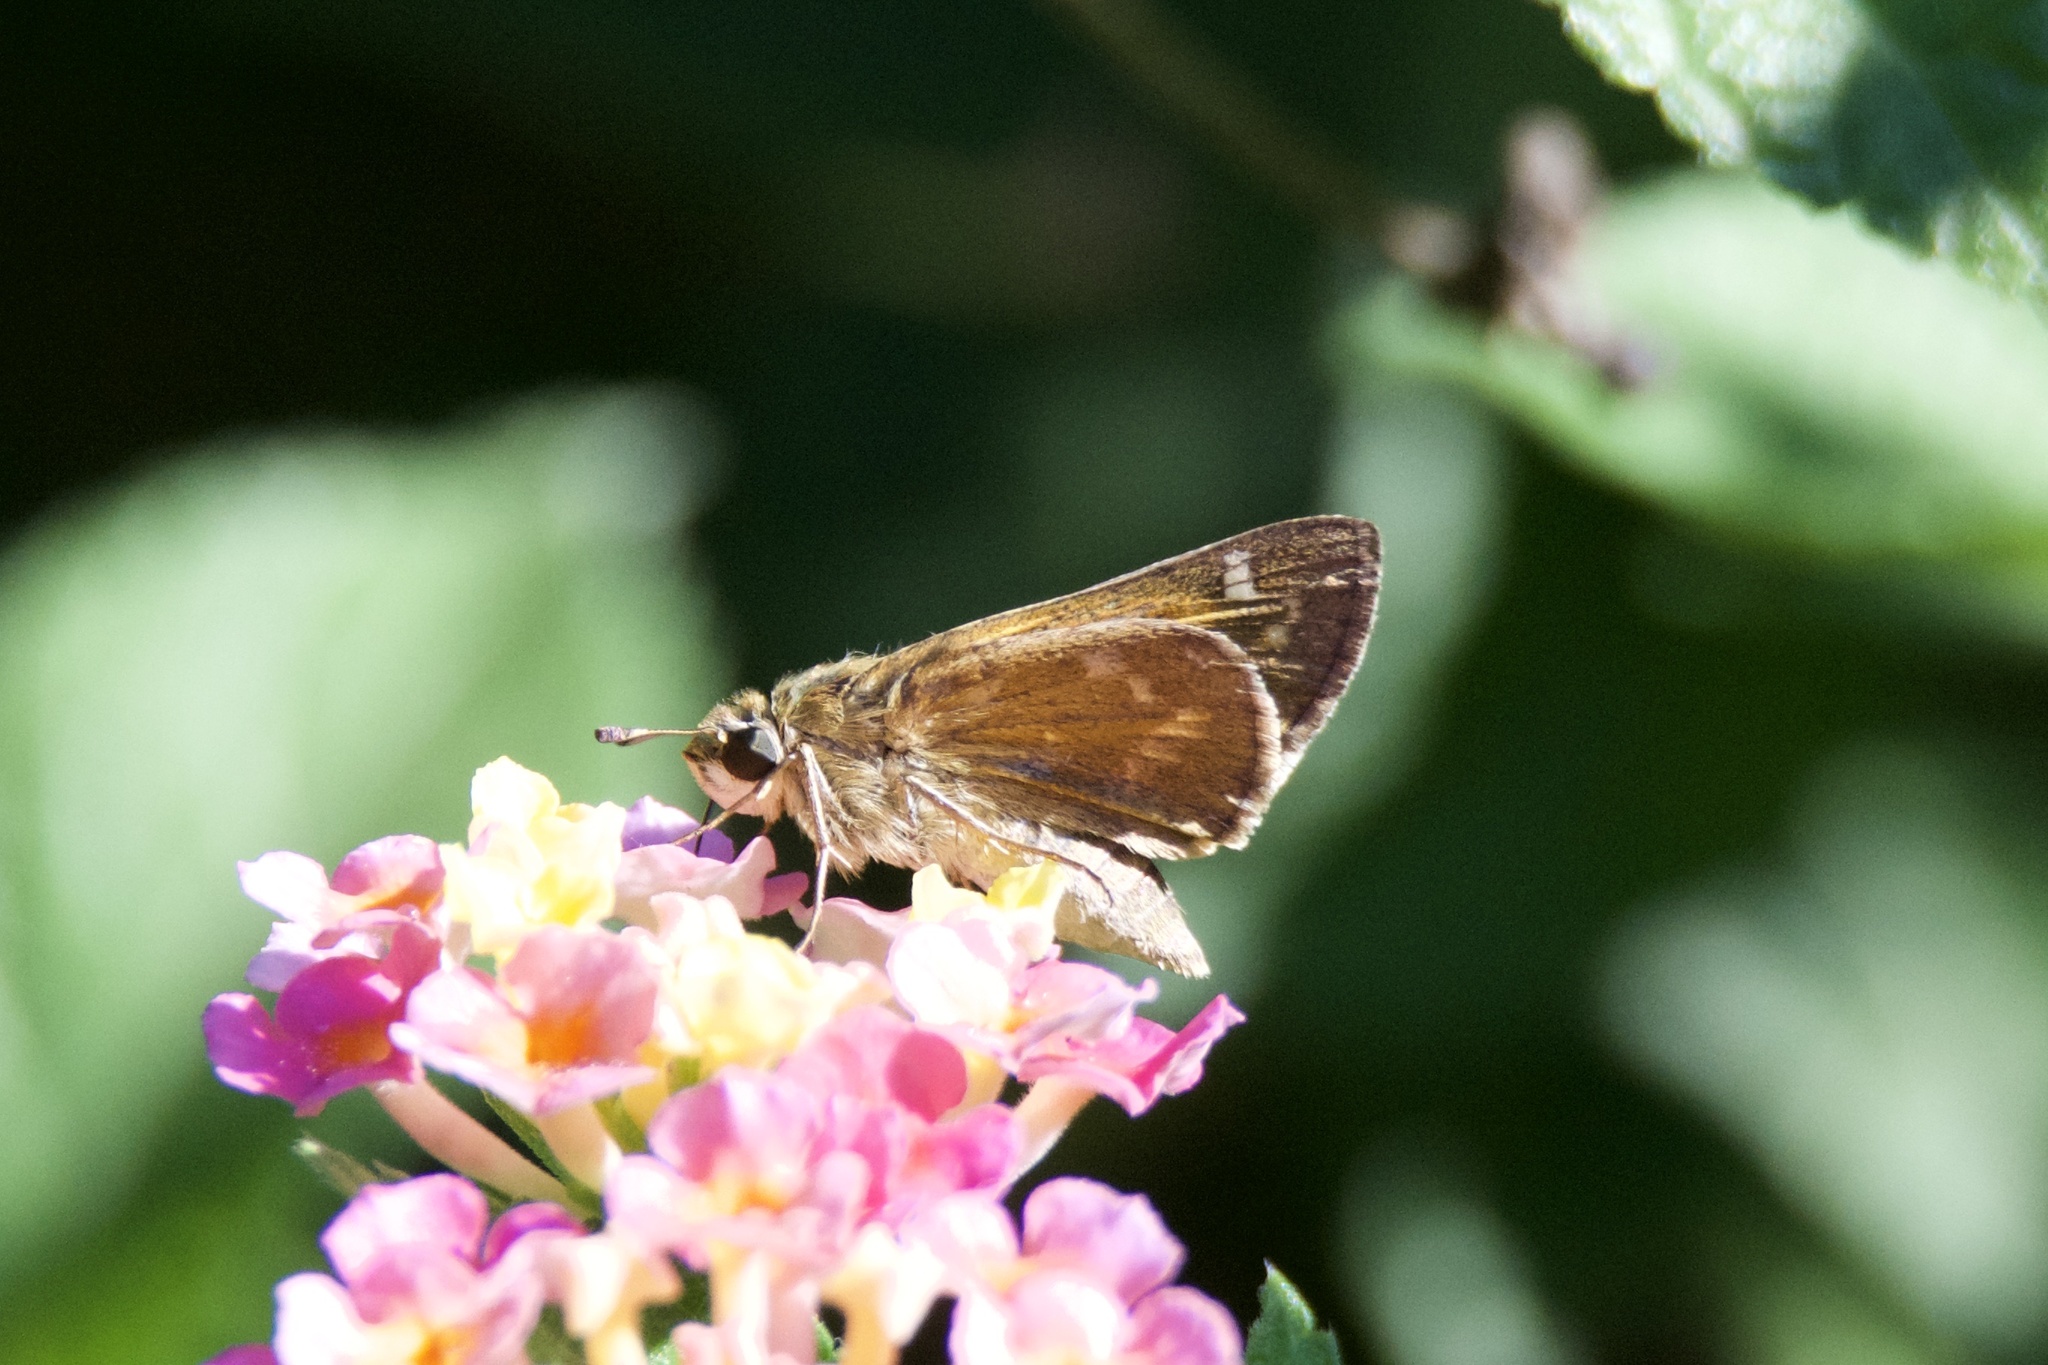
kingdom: Animalia
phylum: Arthropoda
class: Insecta
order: Lepidoptera
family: Hesperiidae
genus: Atalopedes
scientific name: Atalopedes
